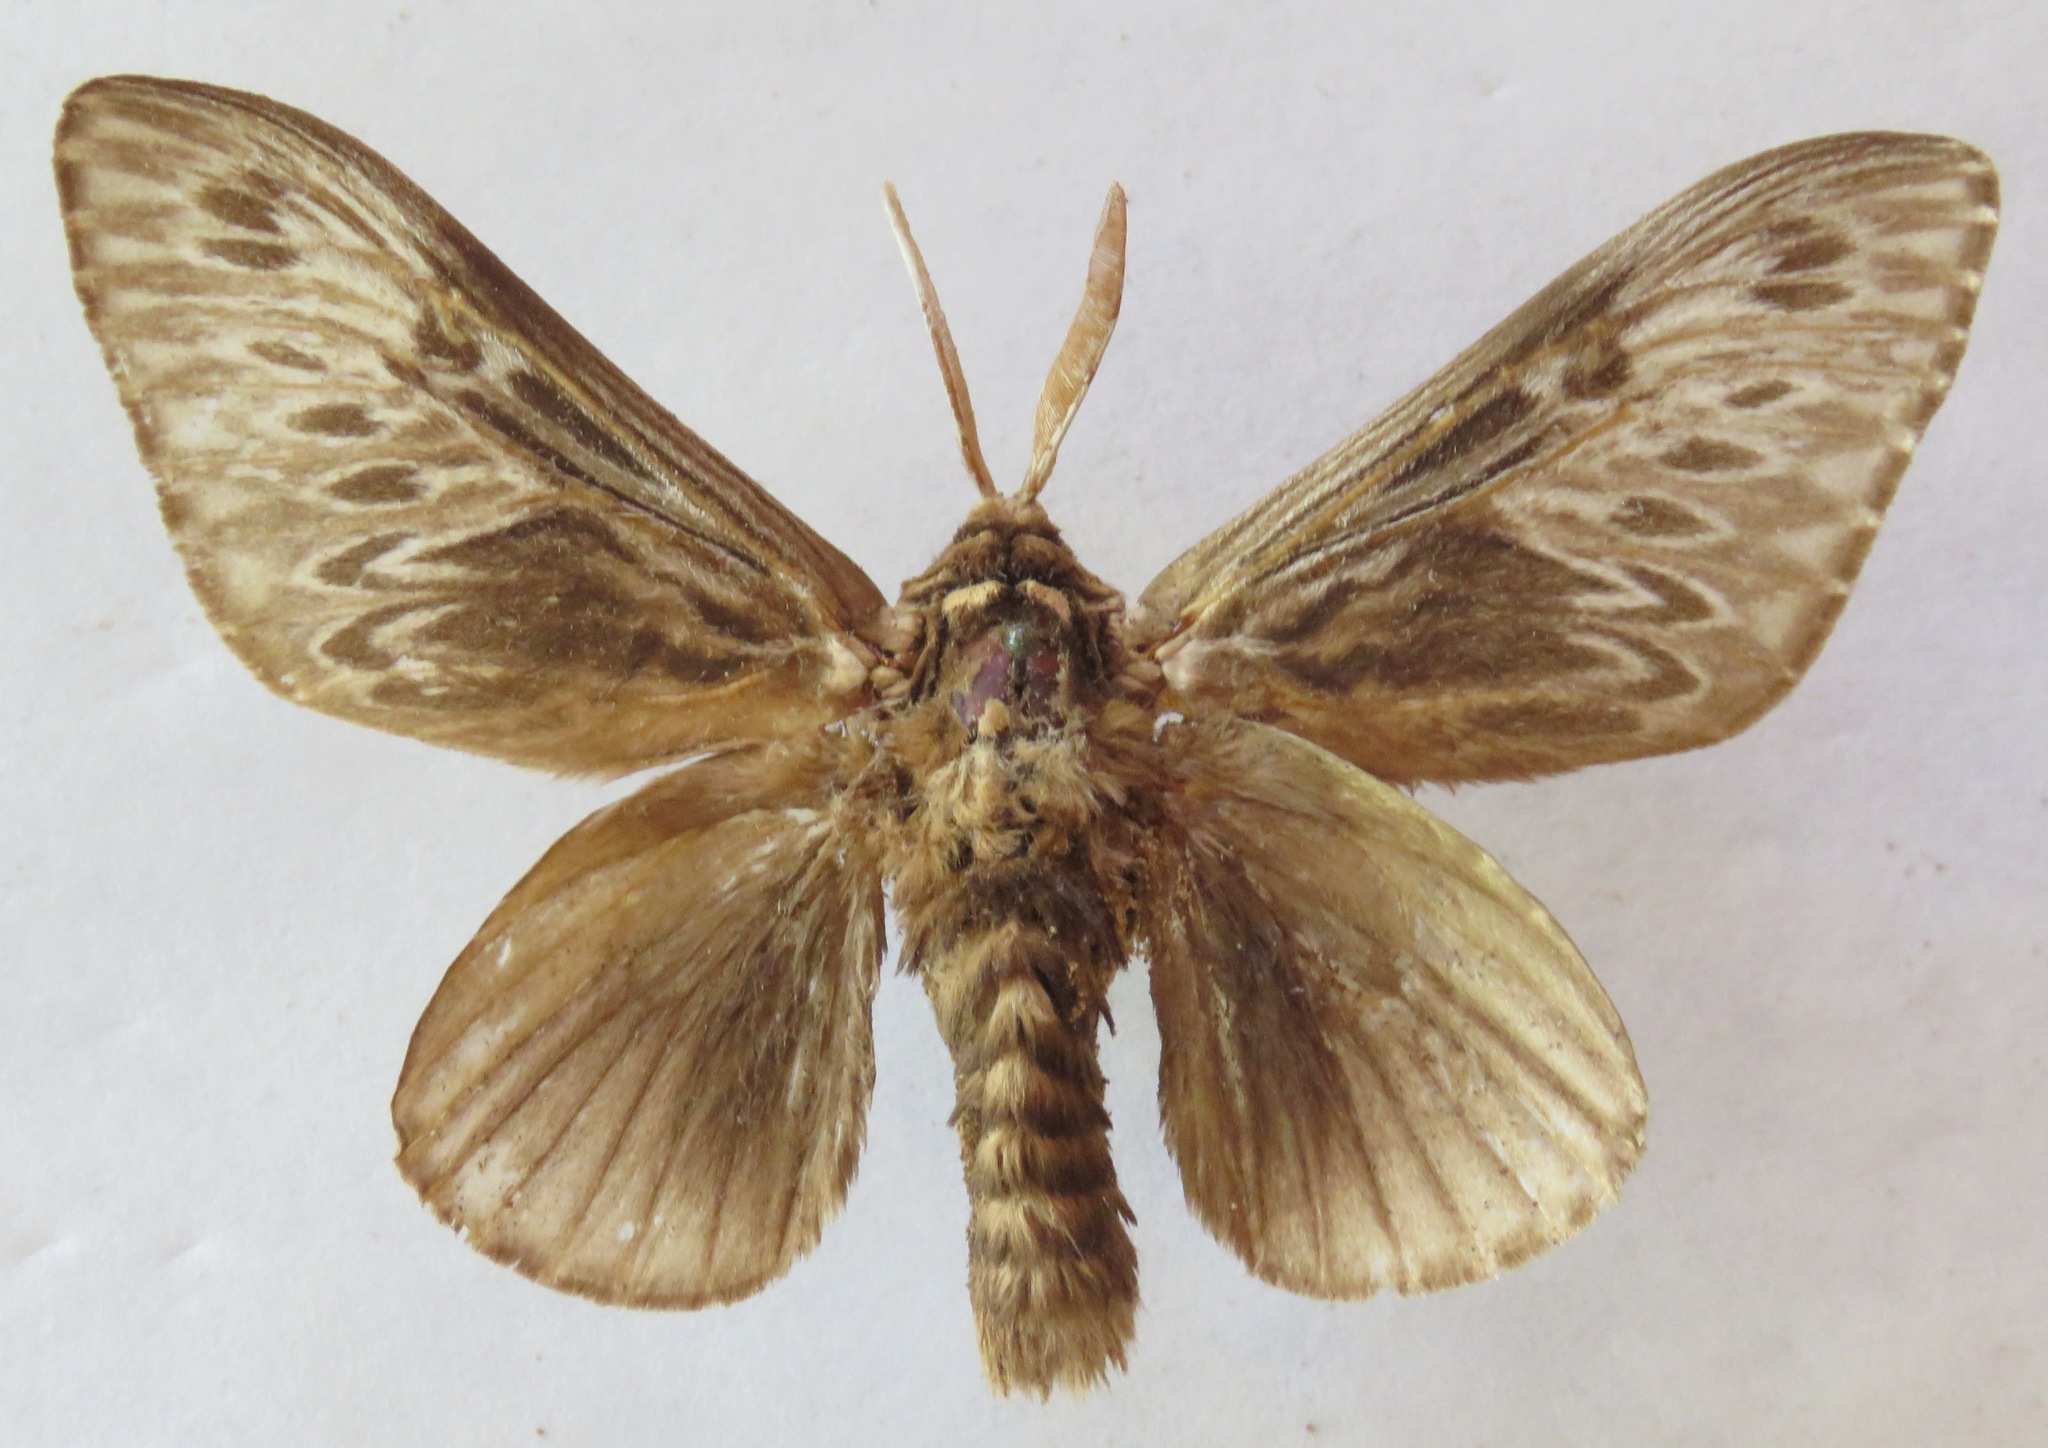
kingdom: Animalia
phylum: Arthropoda
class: Insecta
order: Lepidoptera
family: Megalopygidae
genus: Podalia
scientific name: Podalia fuscescens
